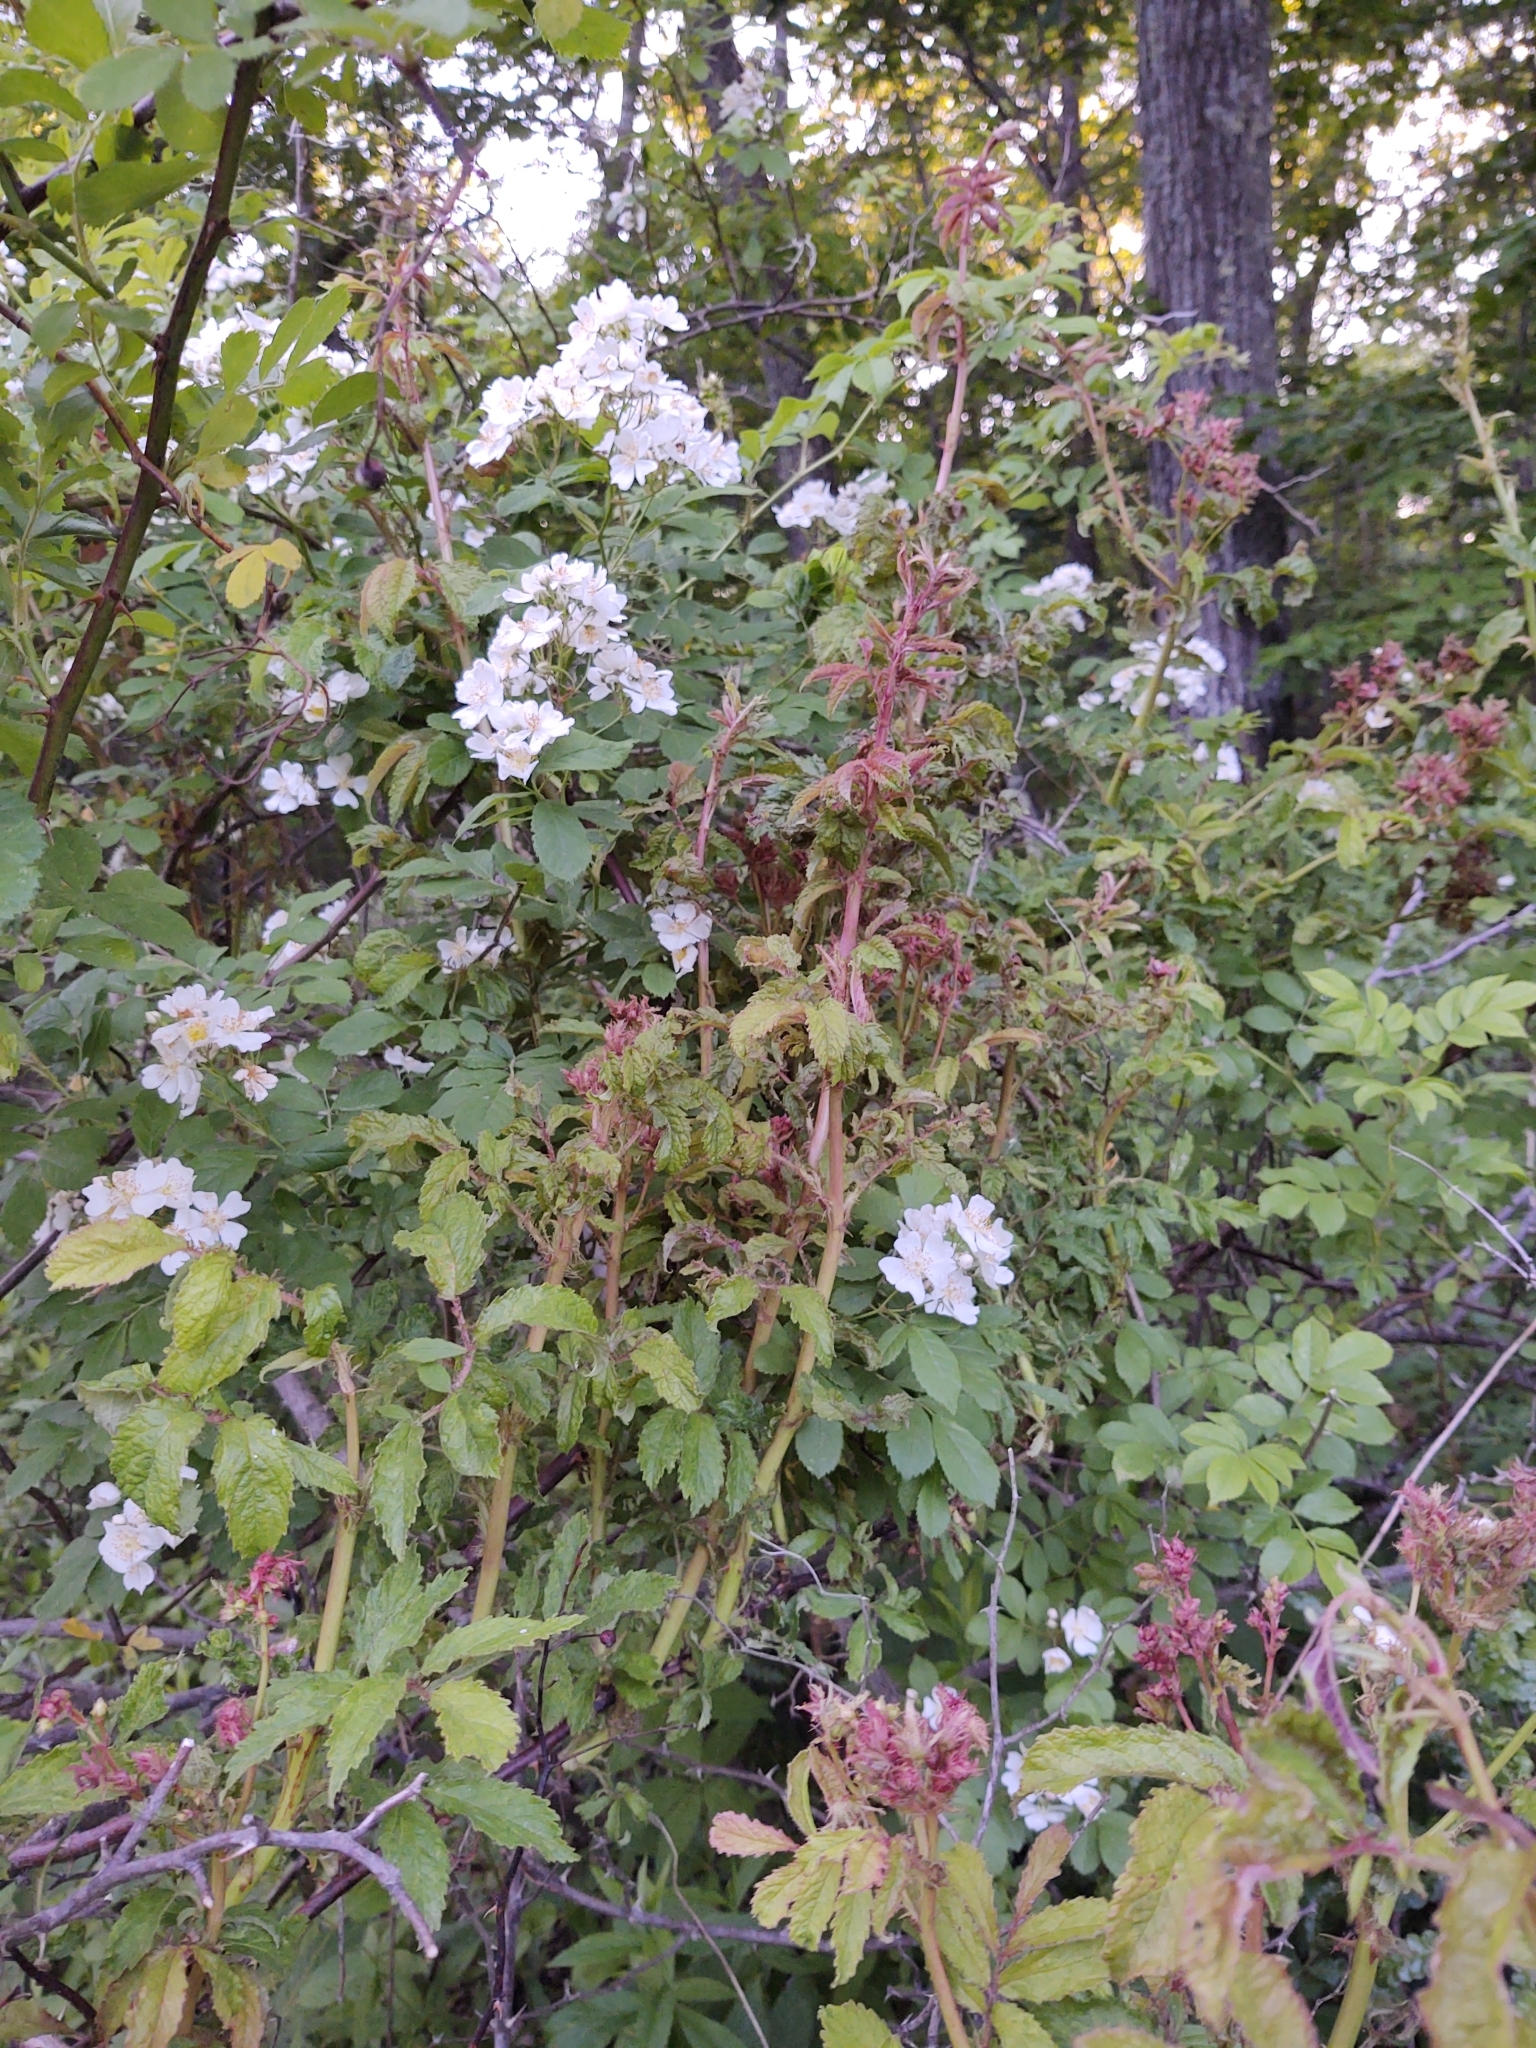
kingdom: Viruses
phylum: Negarnaviricota
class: Ellioviricetes
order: Bunyavirales
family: Fimoviridae
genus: Emaravirus
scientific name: Emaravirus rosae
